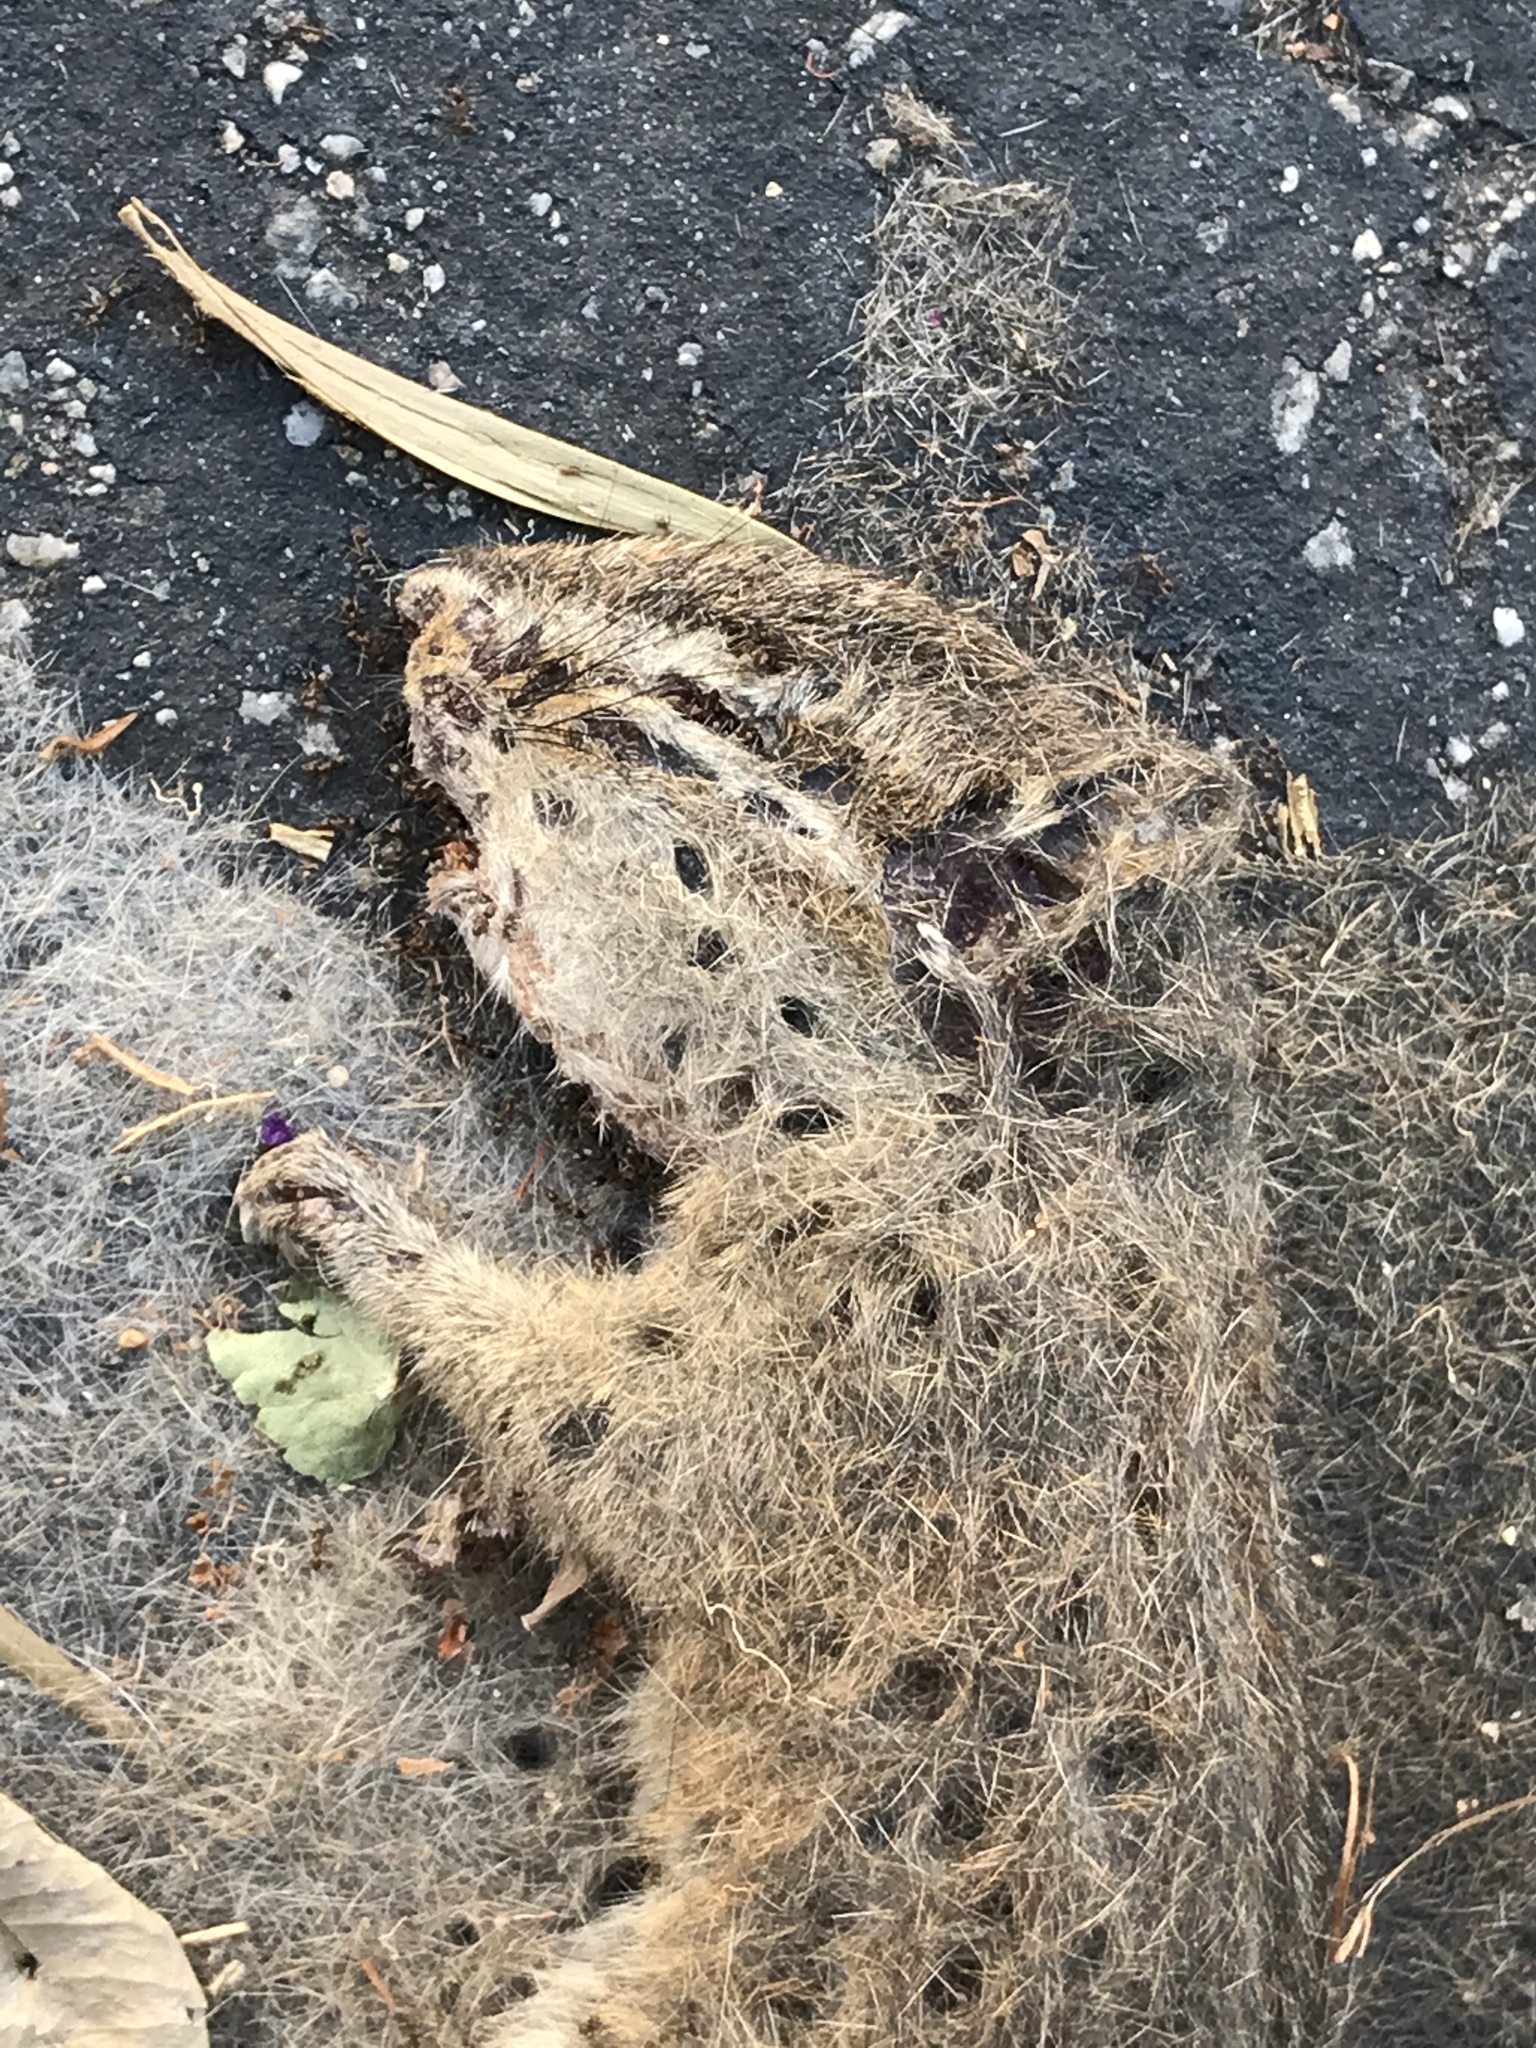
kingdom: Animalia
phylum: Chordata
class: Mammalia
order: Rodentia
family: Sciuridae
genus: Tamias
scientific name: Tamias merriami
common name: Merriam's chipmunk
